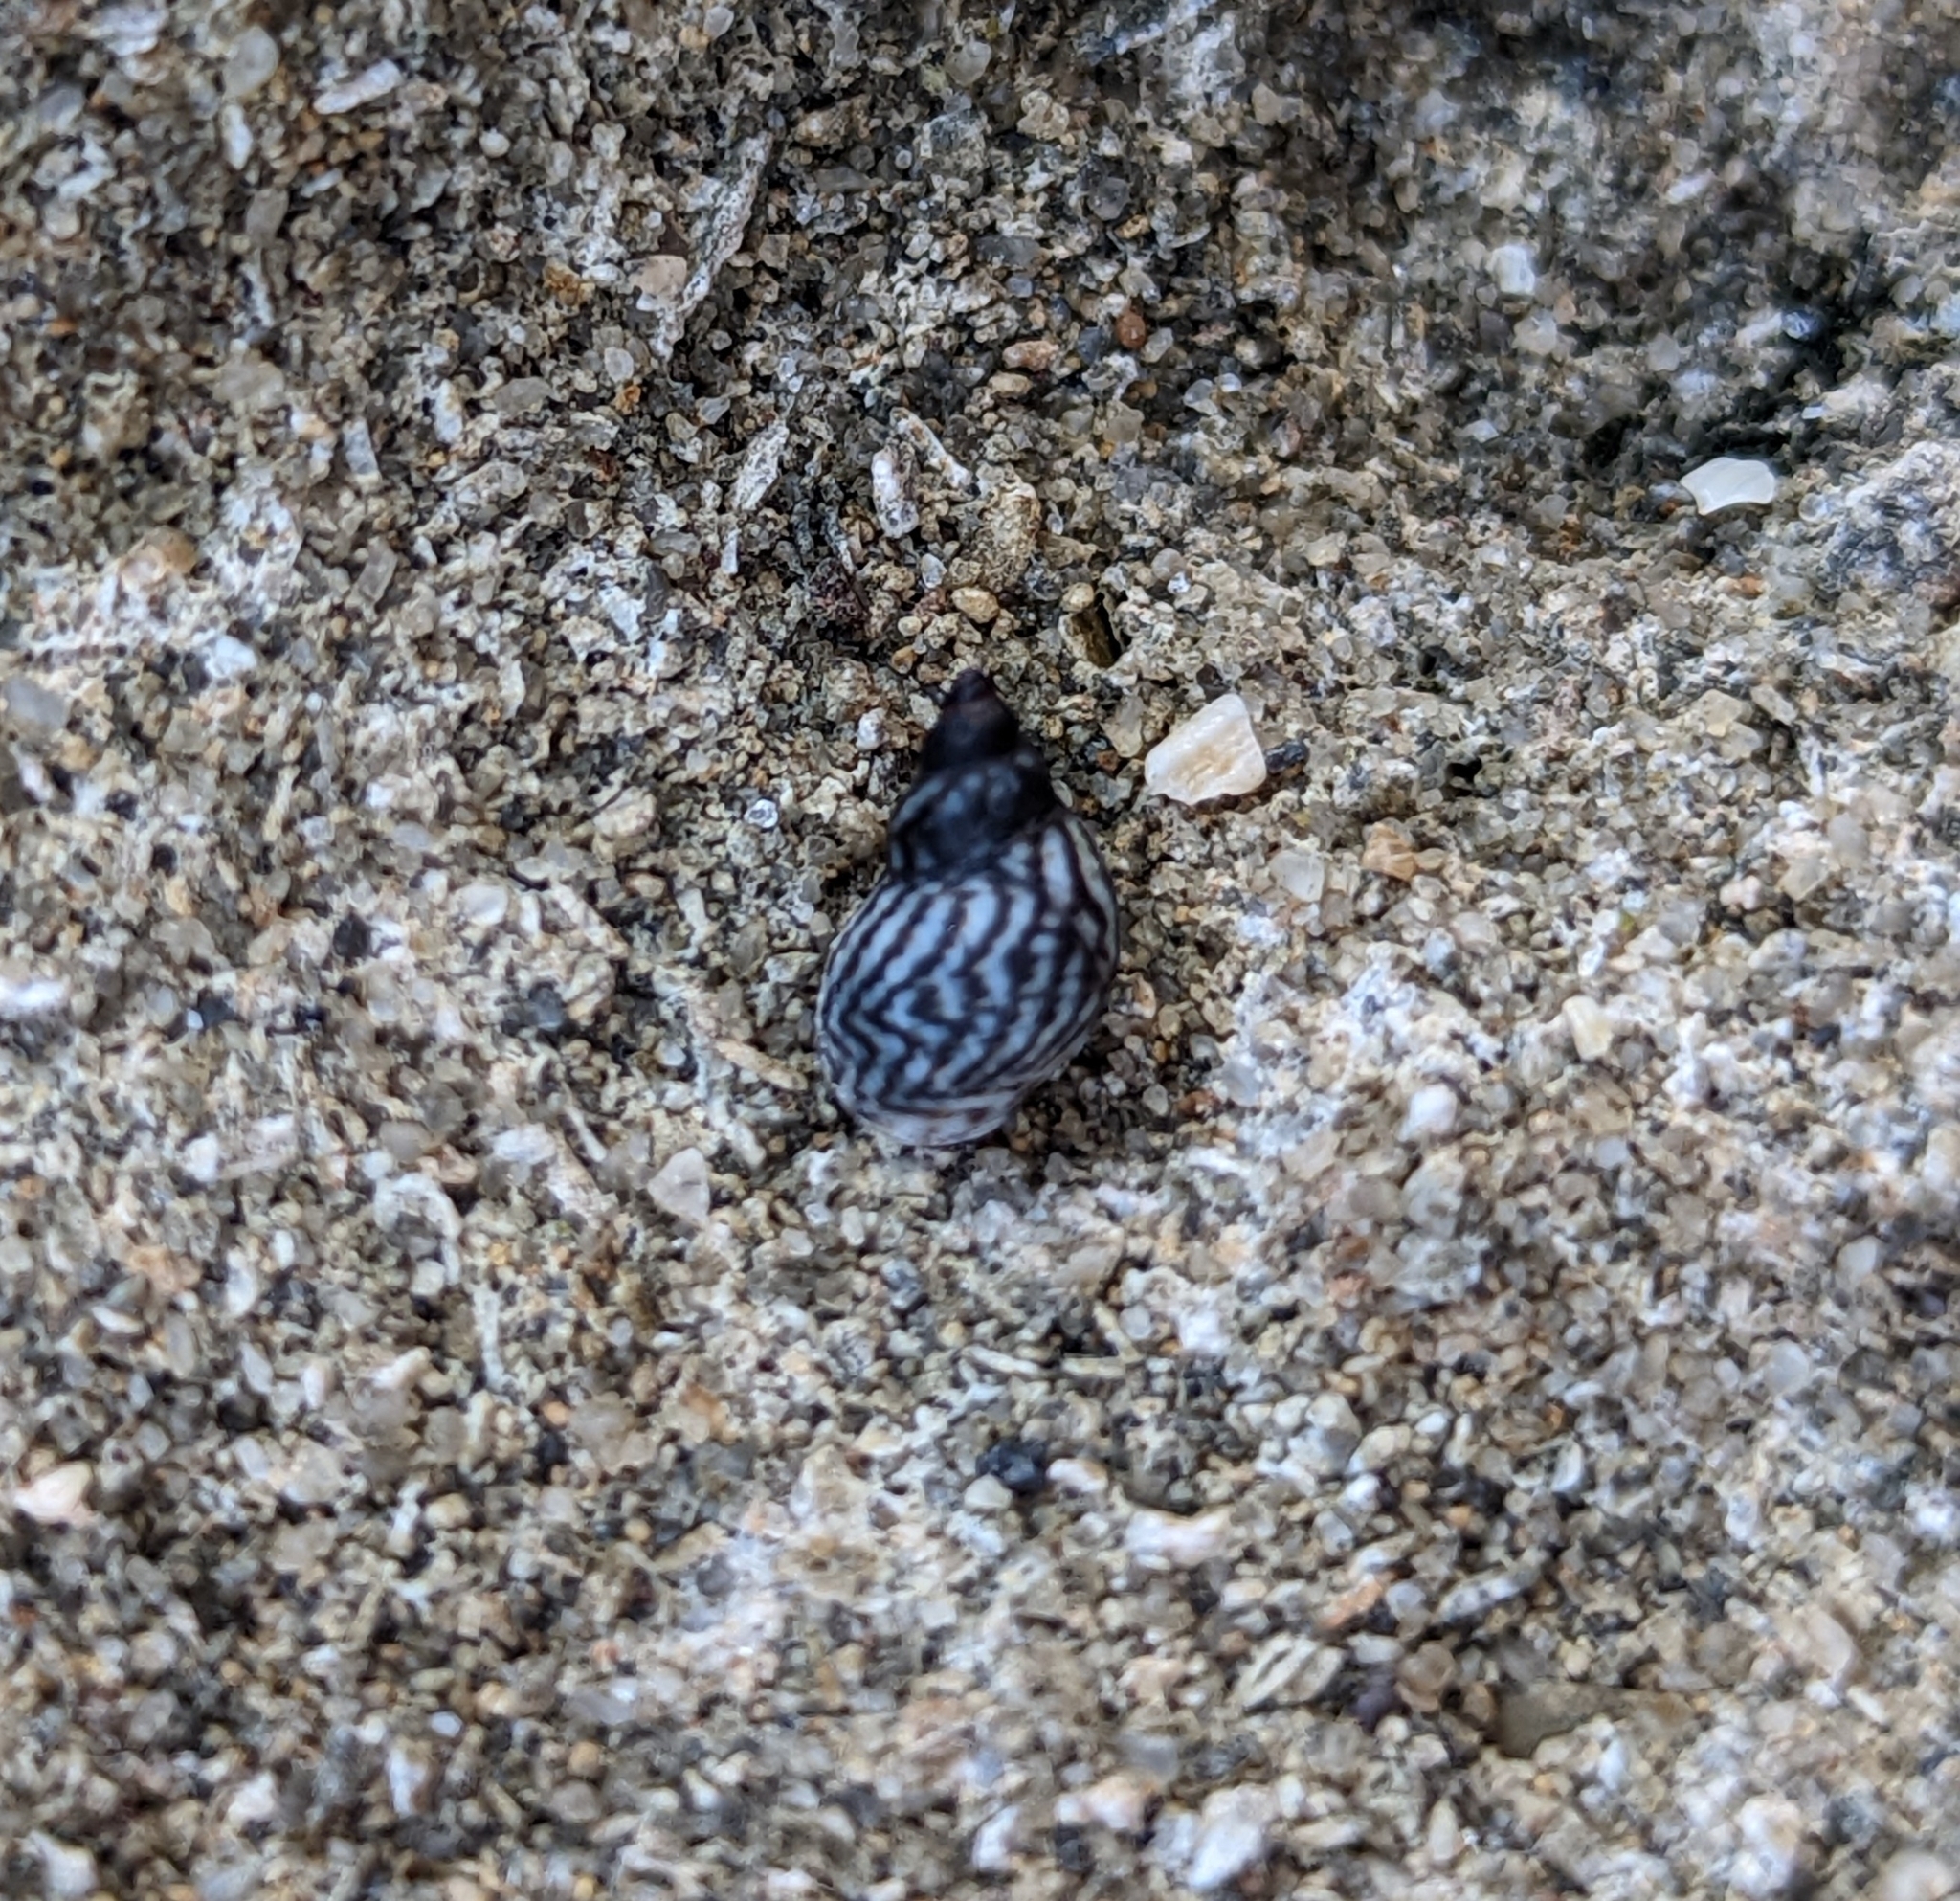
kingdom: Animalia
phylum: Mollusca
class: Gastropoda
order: Littorinimorpha
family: Littorinidae
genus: Echinolittorina
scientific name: Echinolittorina placida
